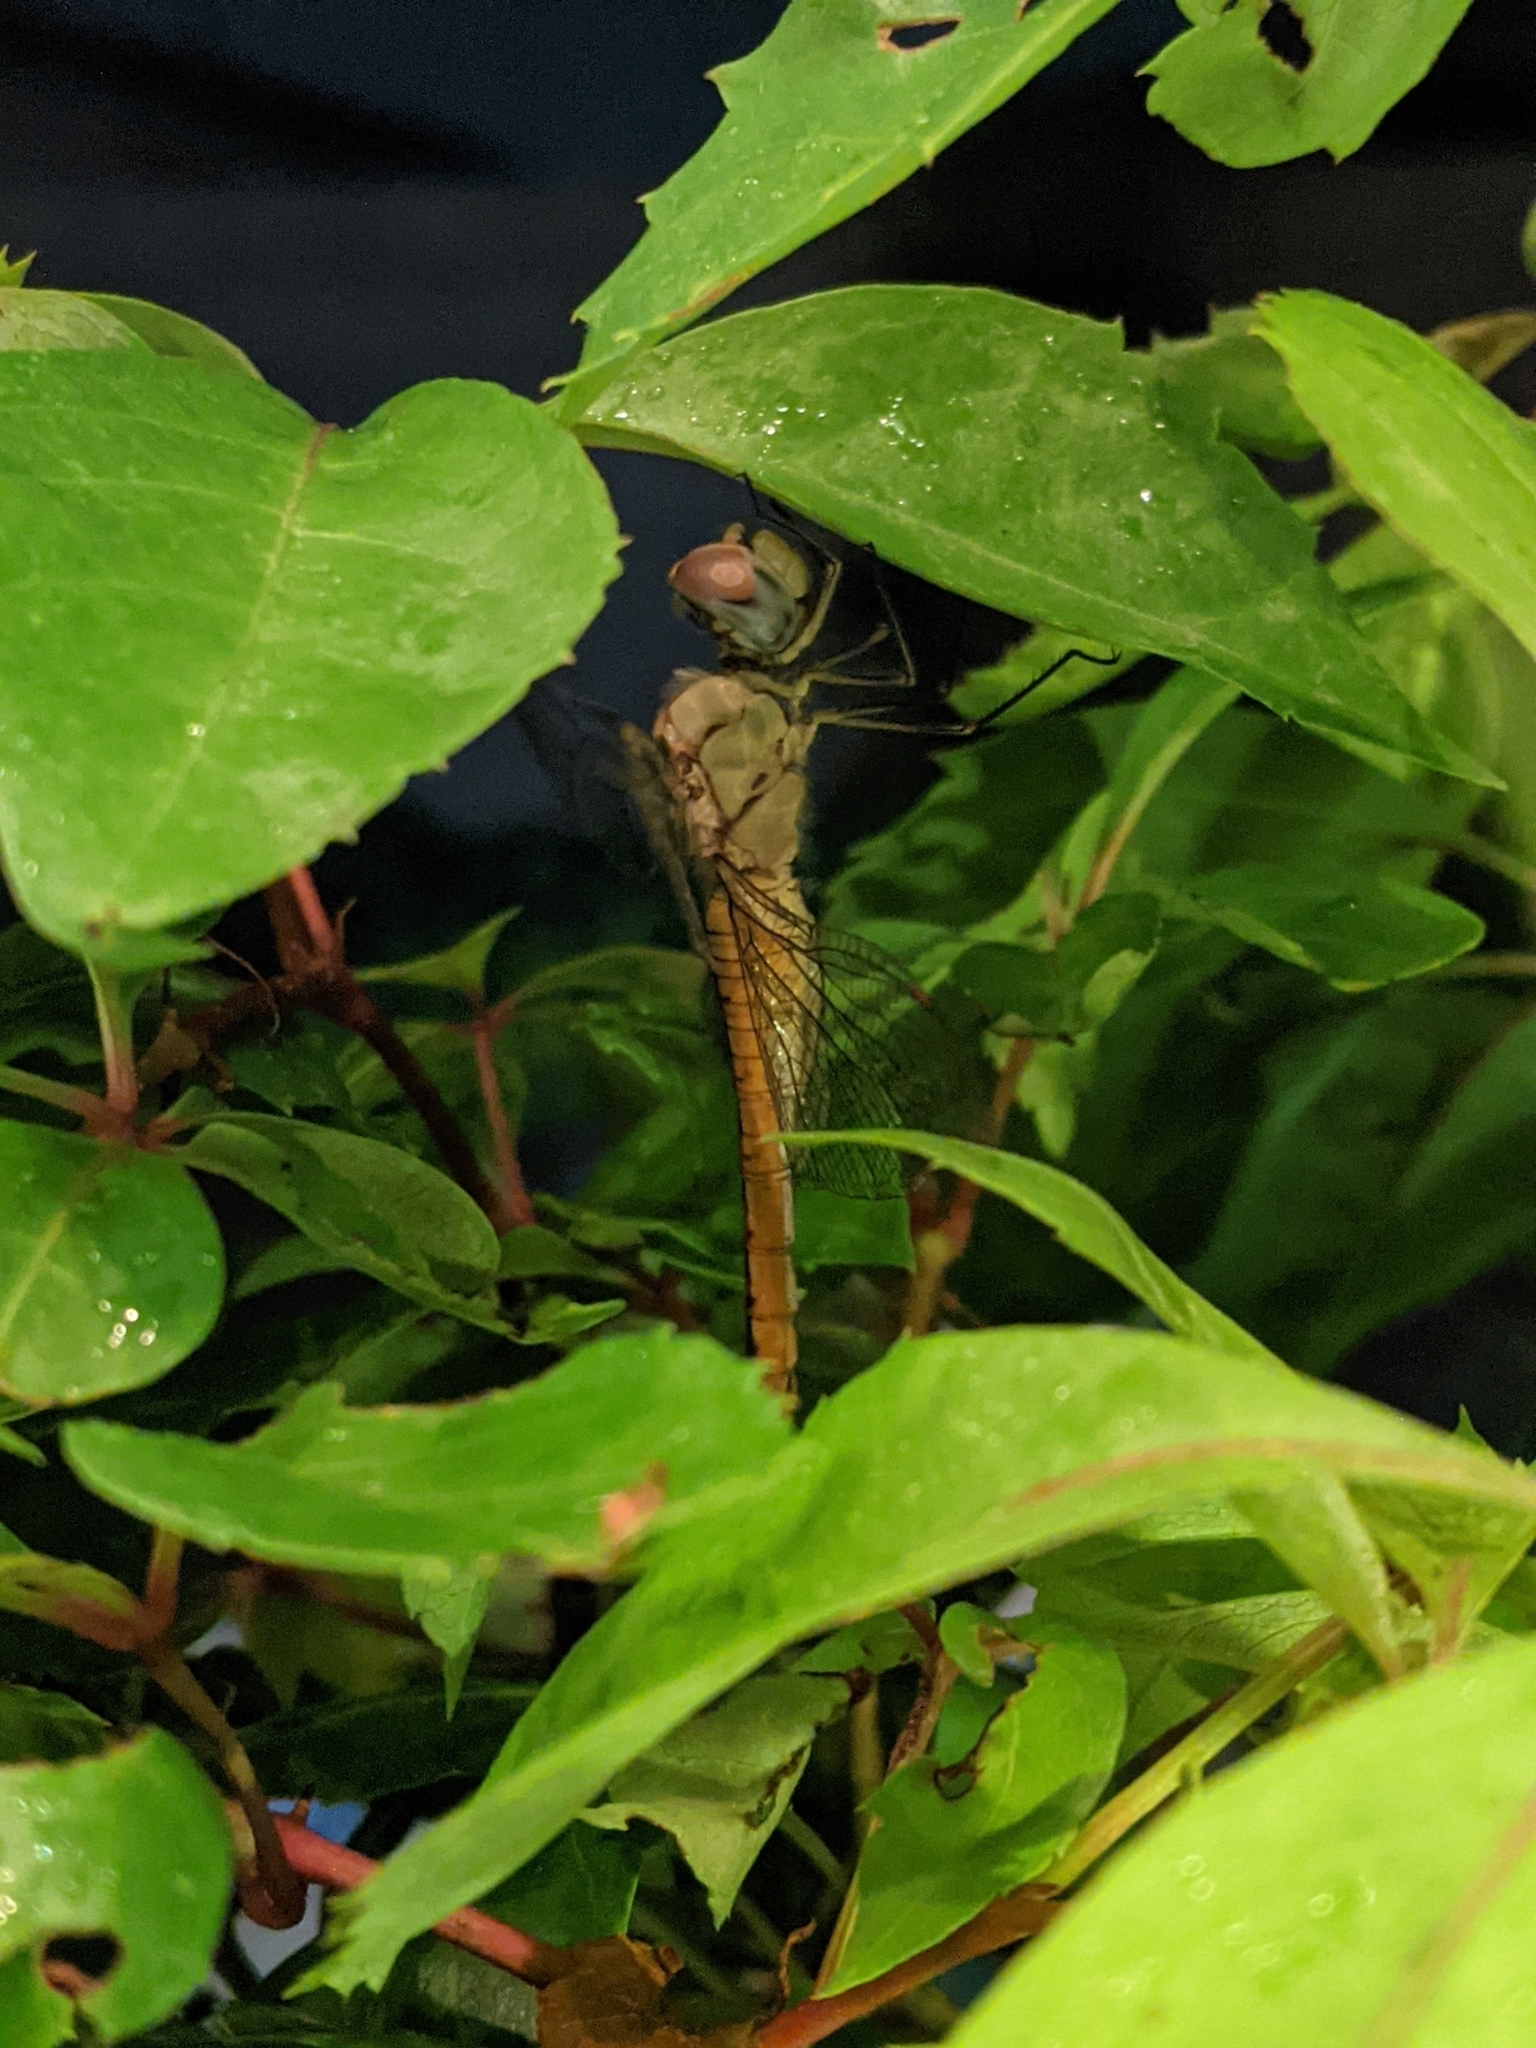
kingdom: Animalia
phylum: Arthropoda
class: Insecta
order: Odonata
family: Libellulidae
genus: Pantala
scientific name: Pantala flavescens
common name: Wandering glider
